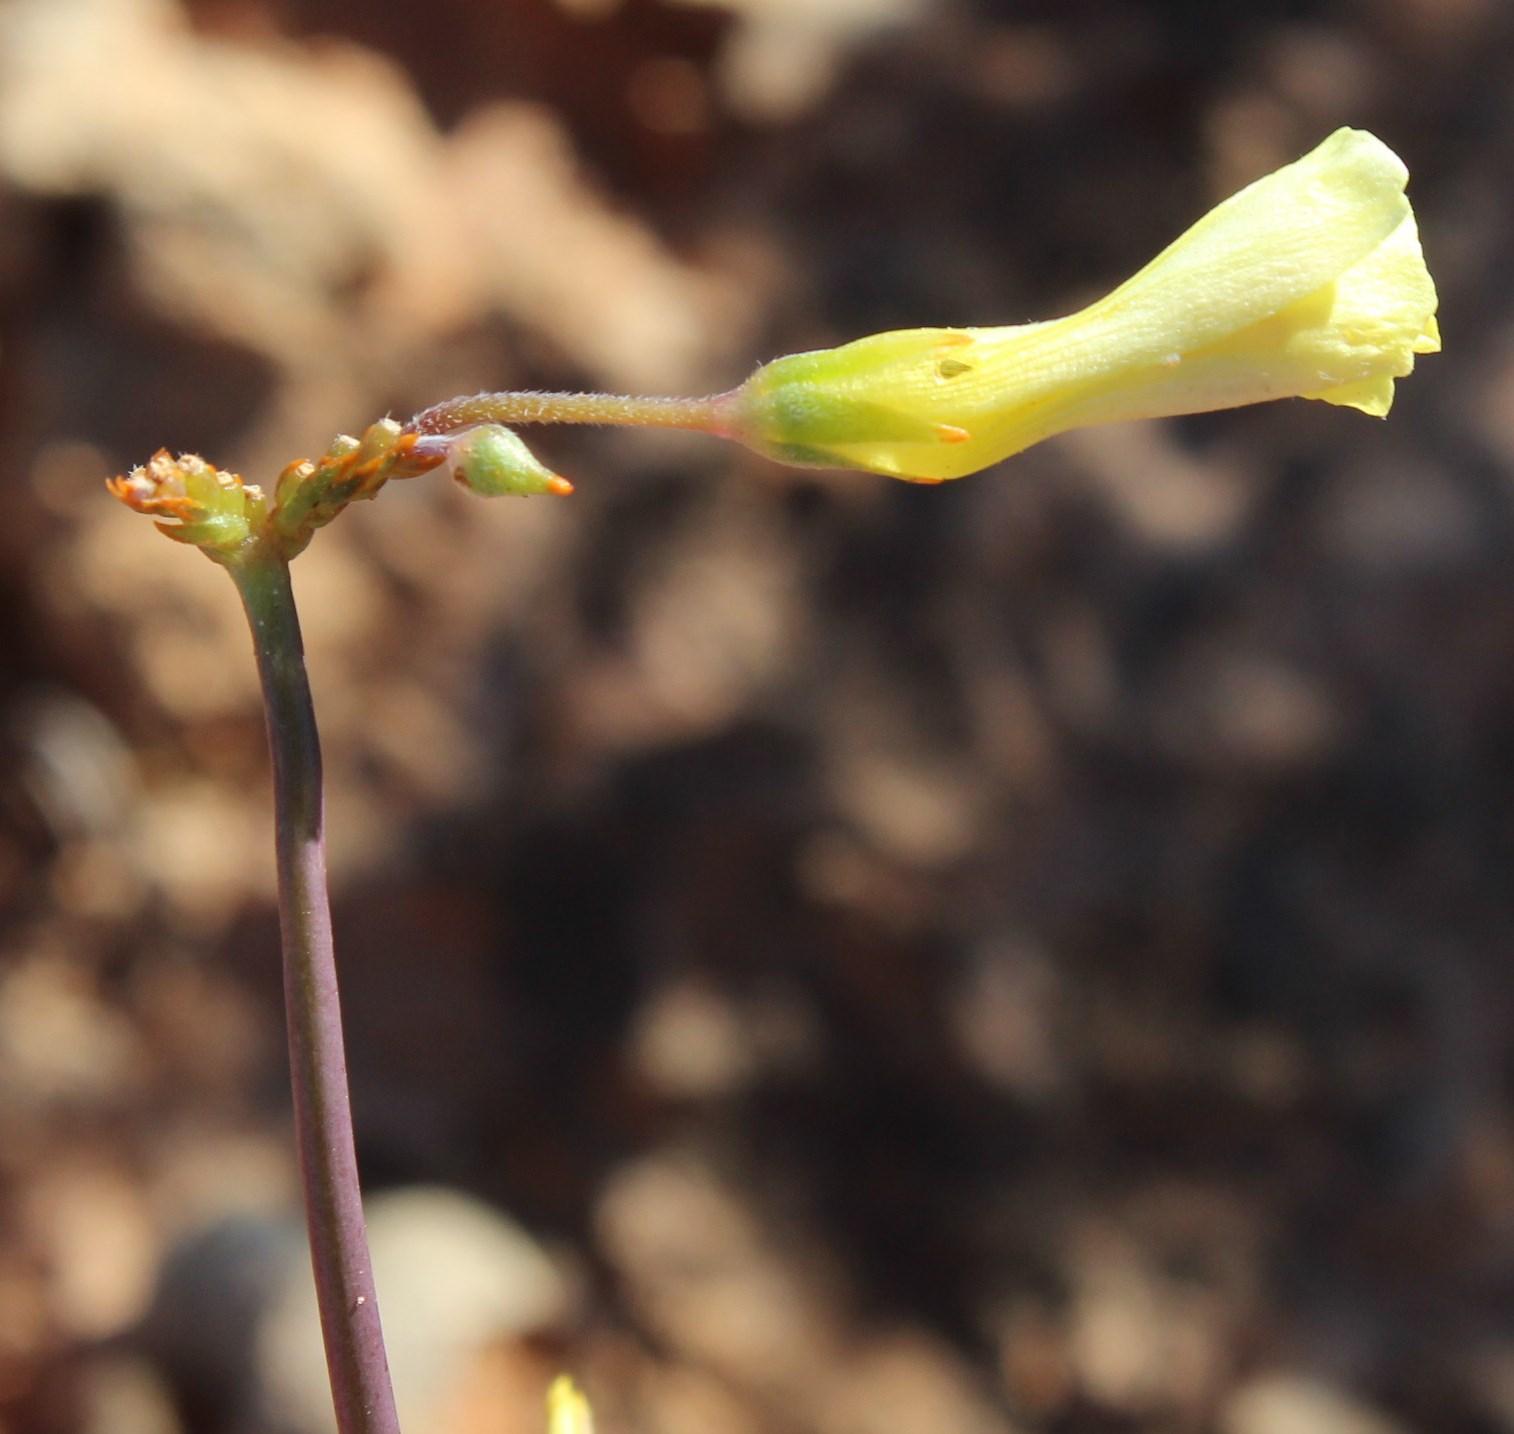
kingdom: Plantae
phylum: Tracheophyta
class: Magnoliopsida
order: Oxalidales
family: Oxalidaceae
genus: Oxalis
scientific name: Oxalis pes-caprae
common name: Bermuda-buttercup
